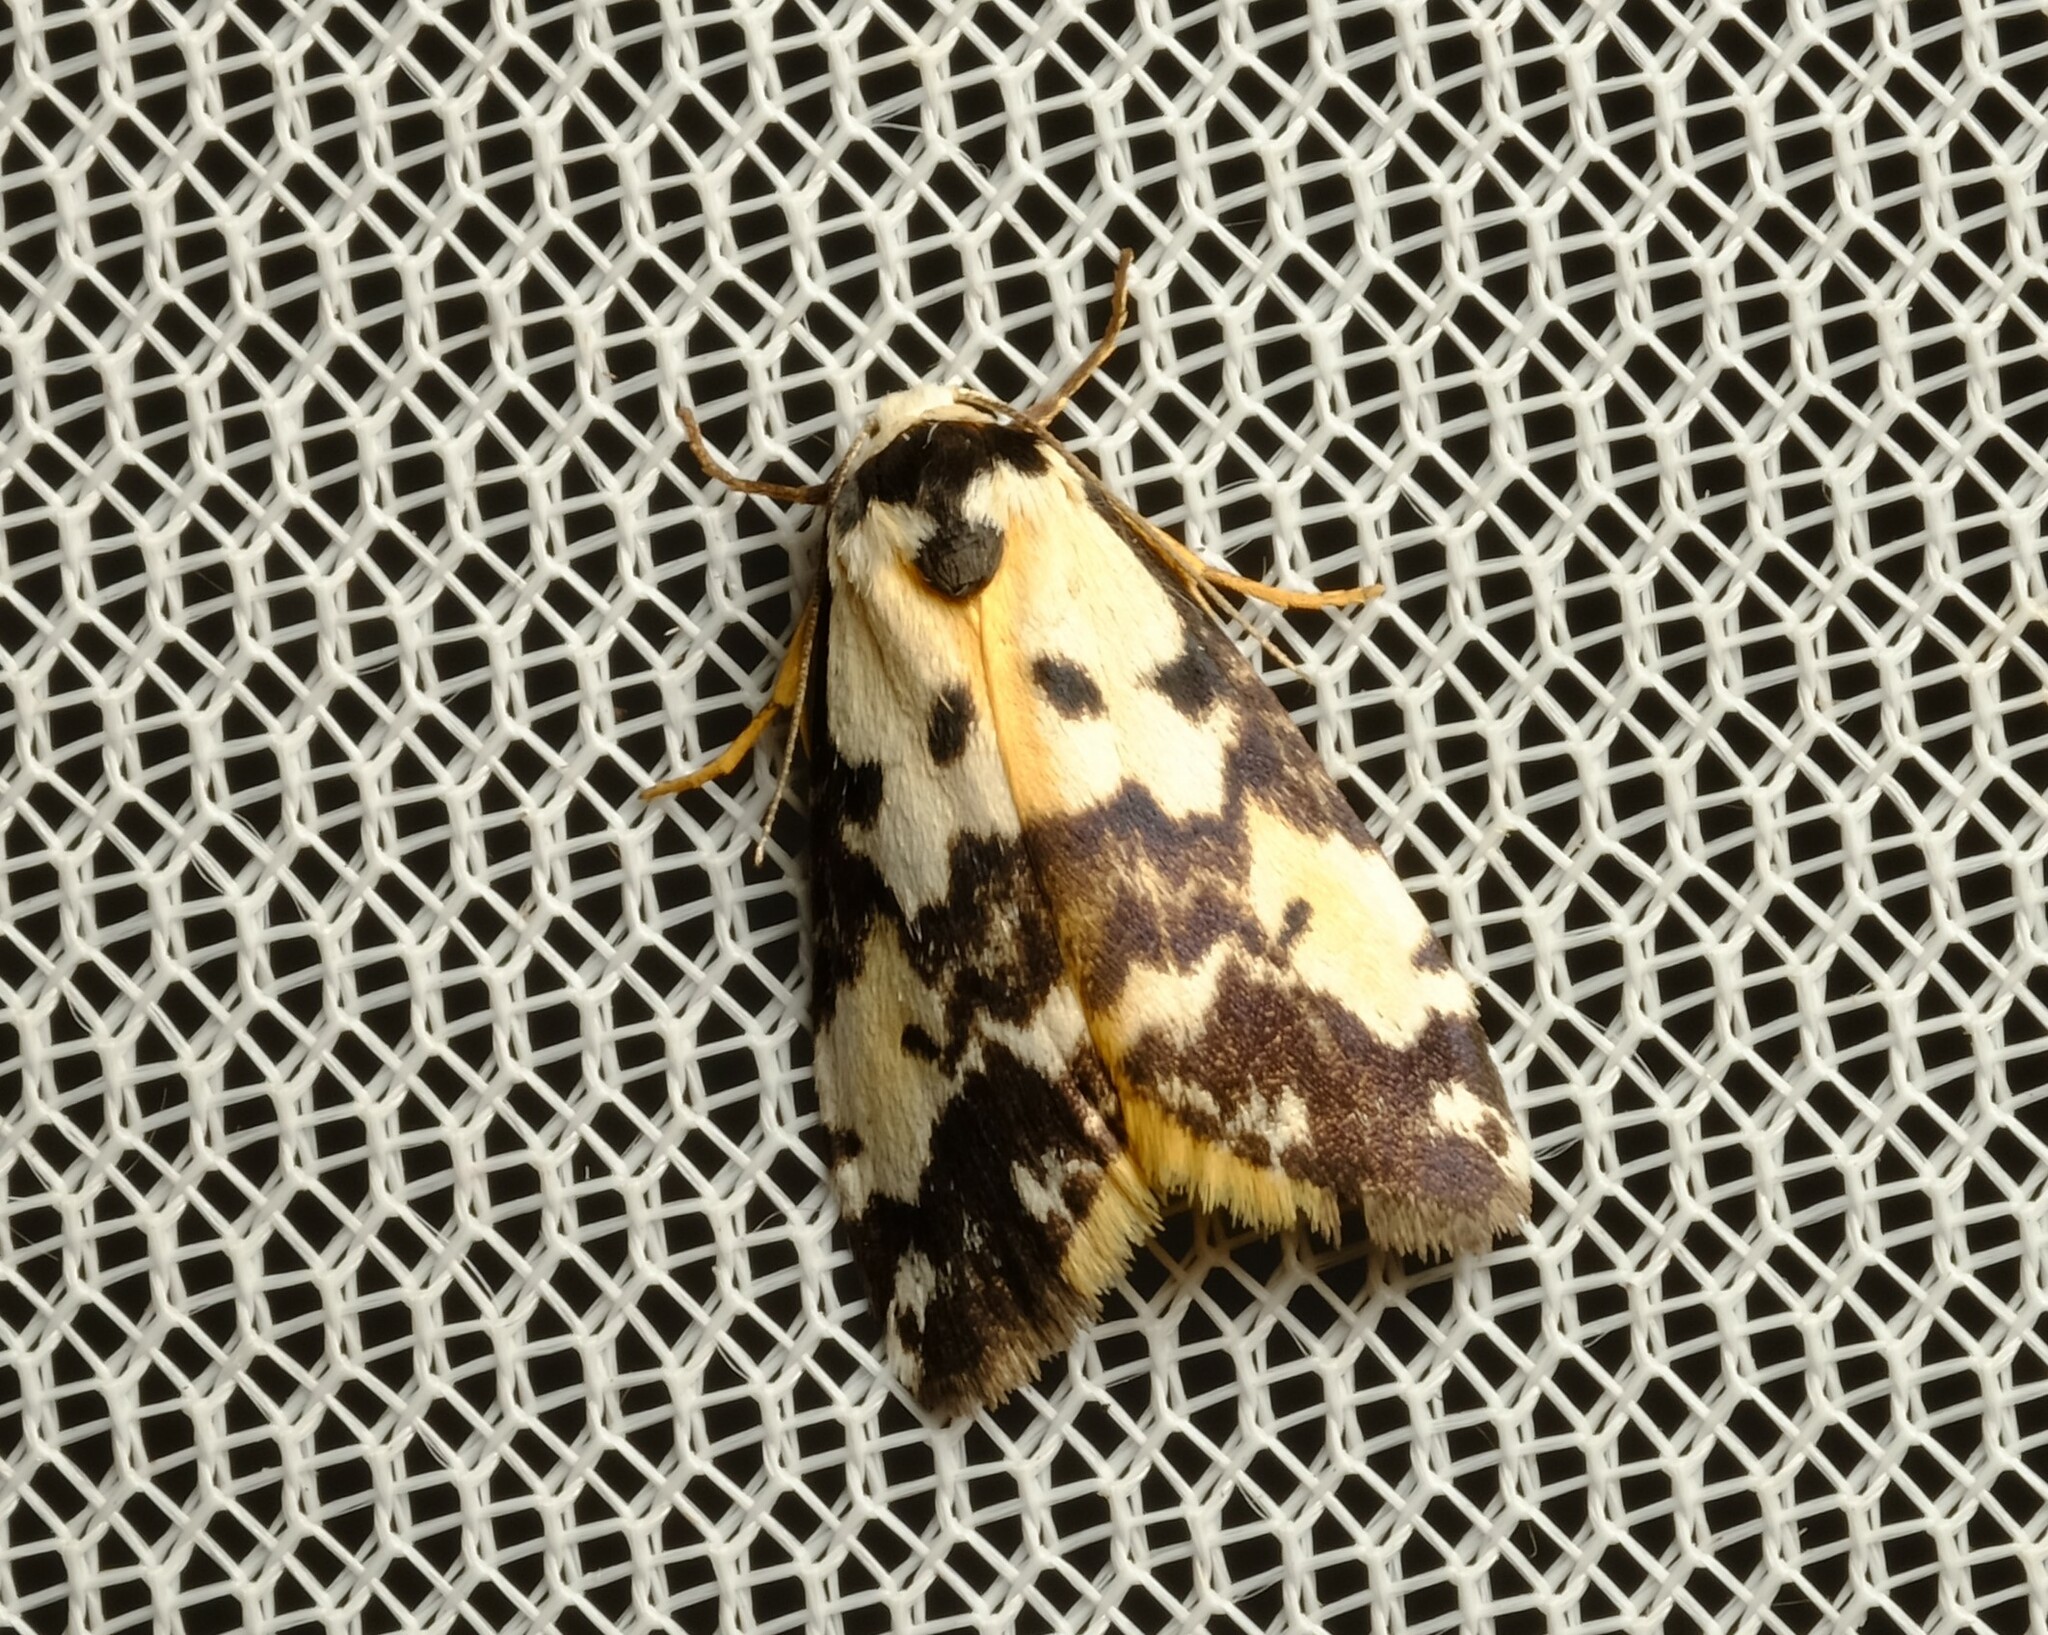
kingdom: Animalia
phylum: Arthropoda
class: Insecta
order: Lepidoptera
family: Erebidae
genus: Thallarcha
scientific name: Thallarcha pellax
